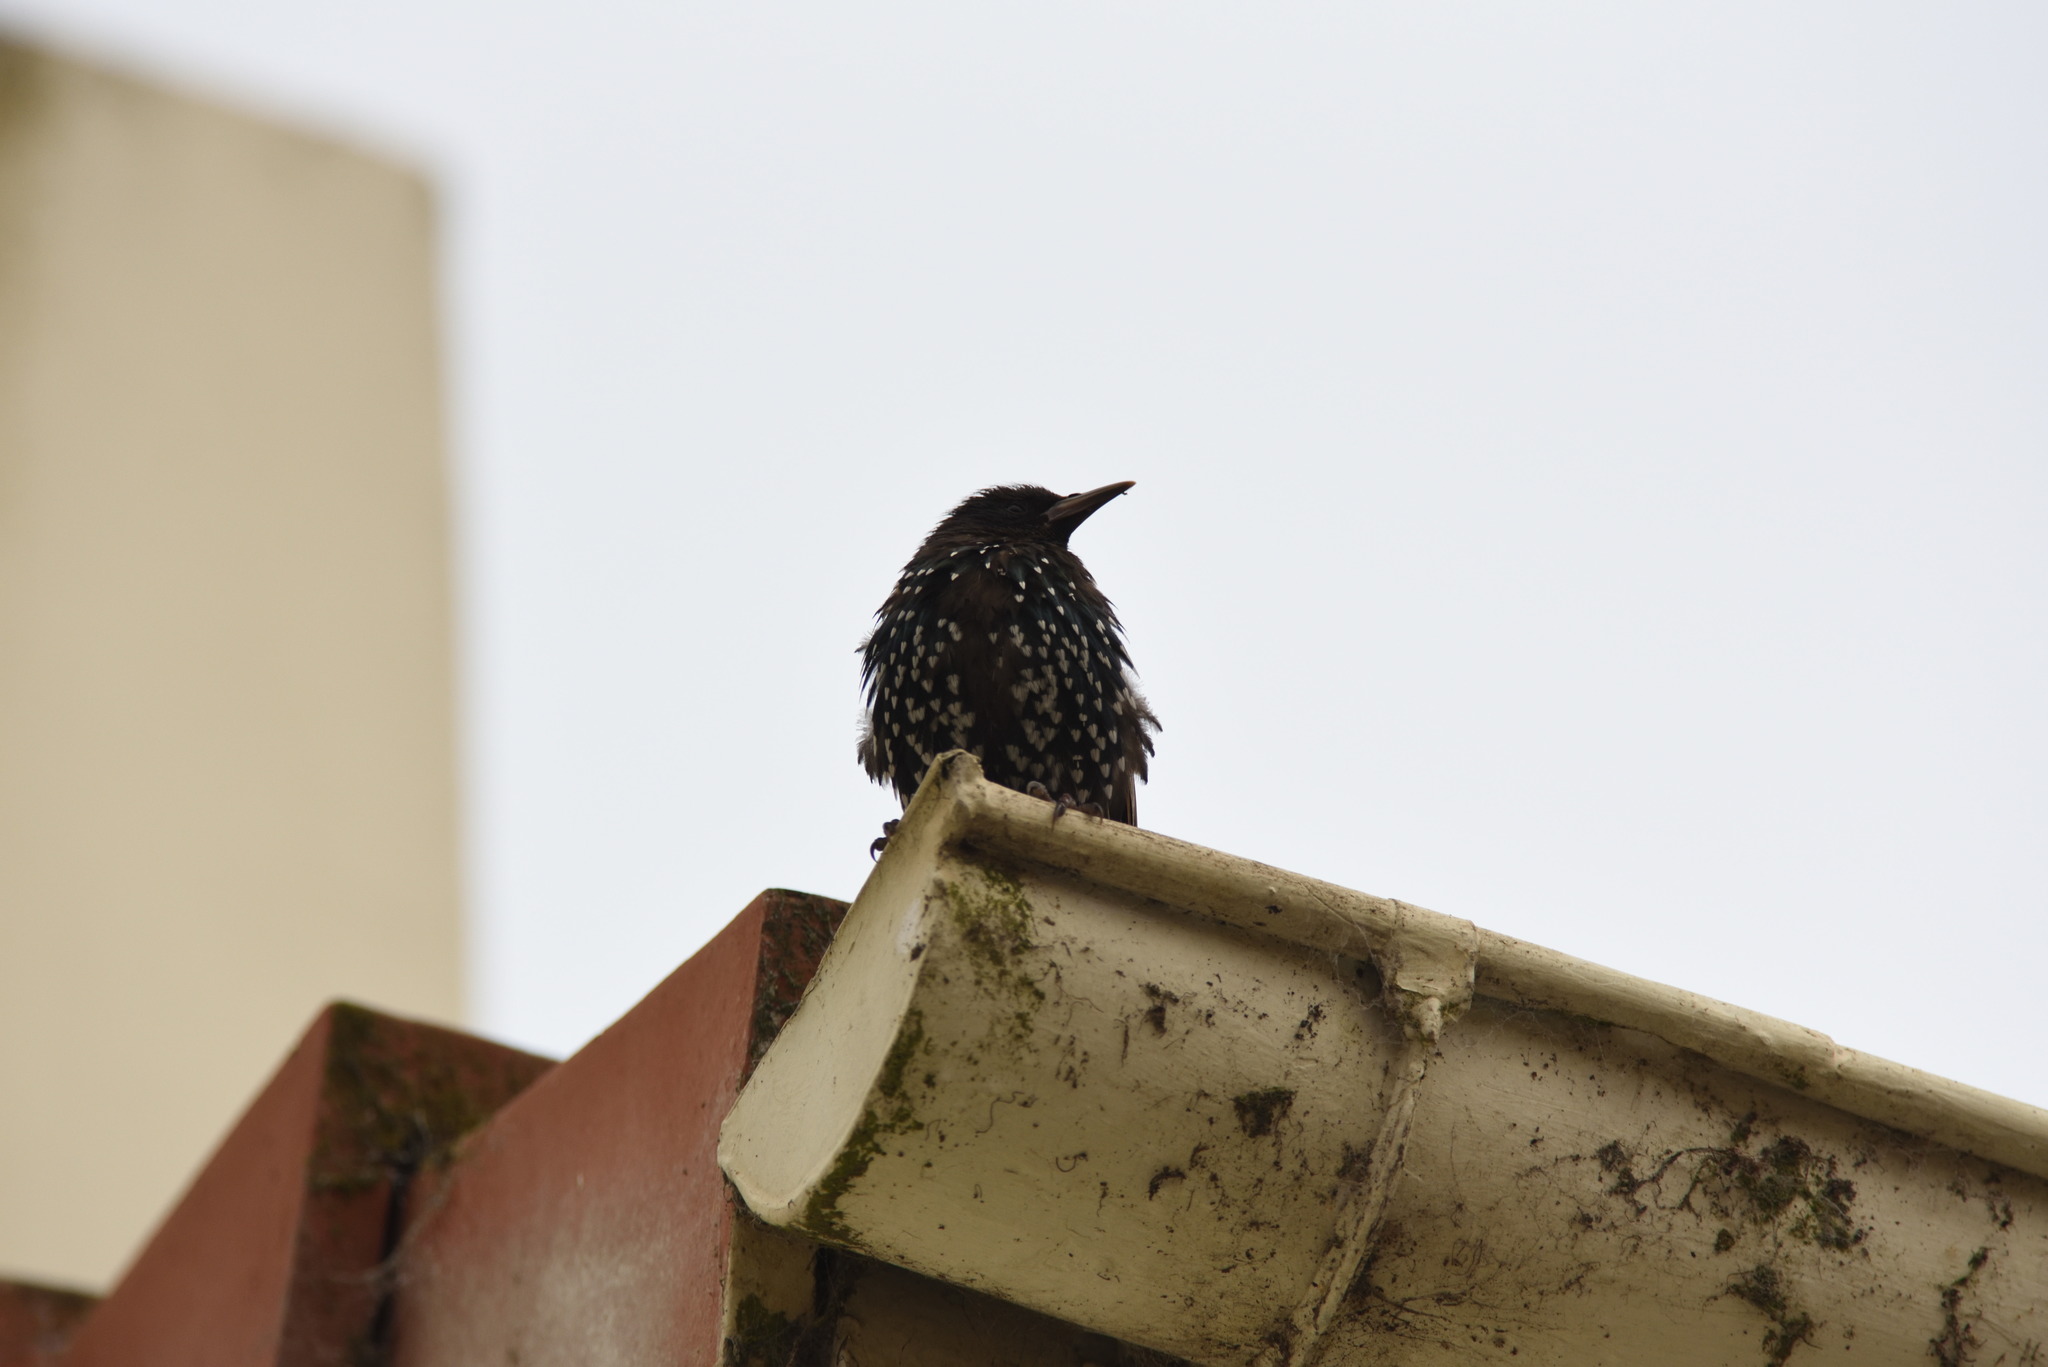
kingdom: Animalia
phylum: Chordata
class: Aves
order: Passeriformes
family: Sturnidae
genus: Sturnus
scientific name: Sturnus vulgaris
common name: Common starling
